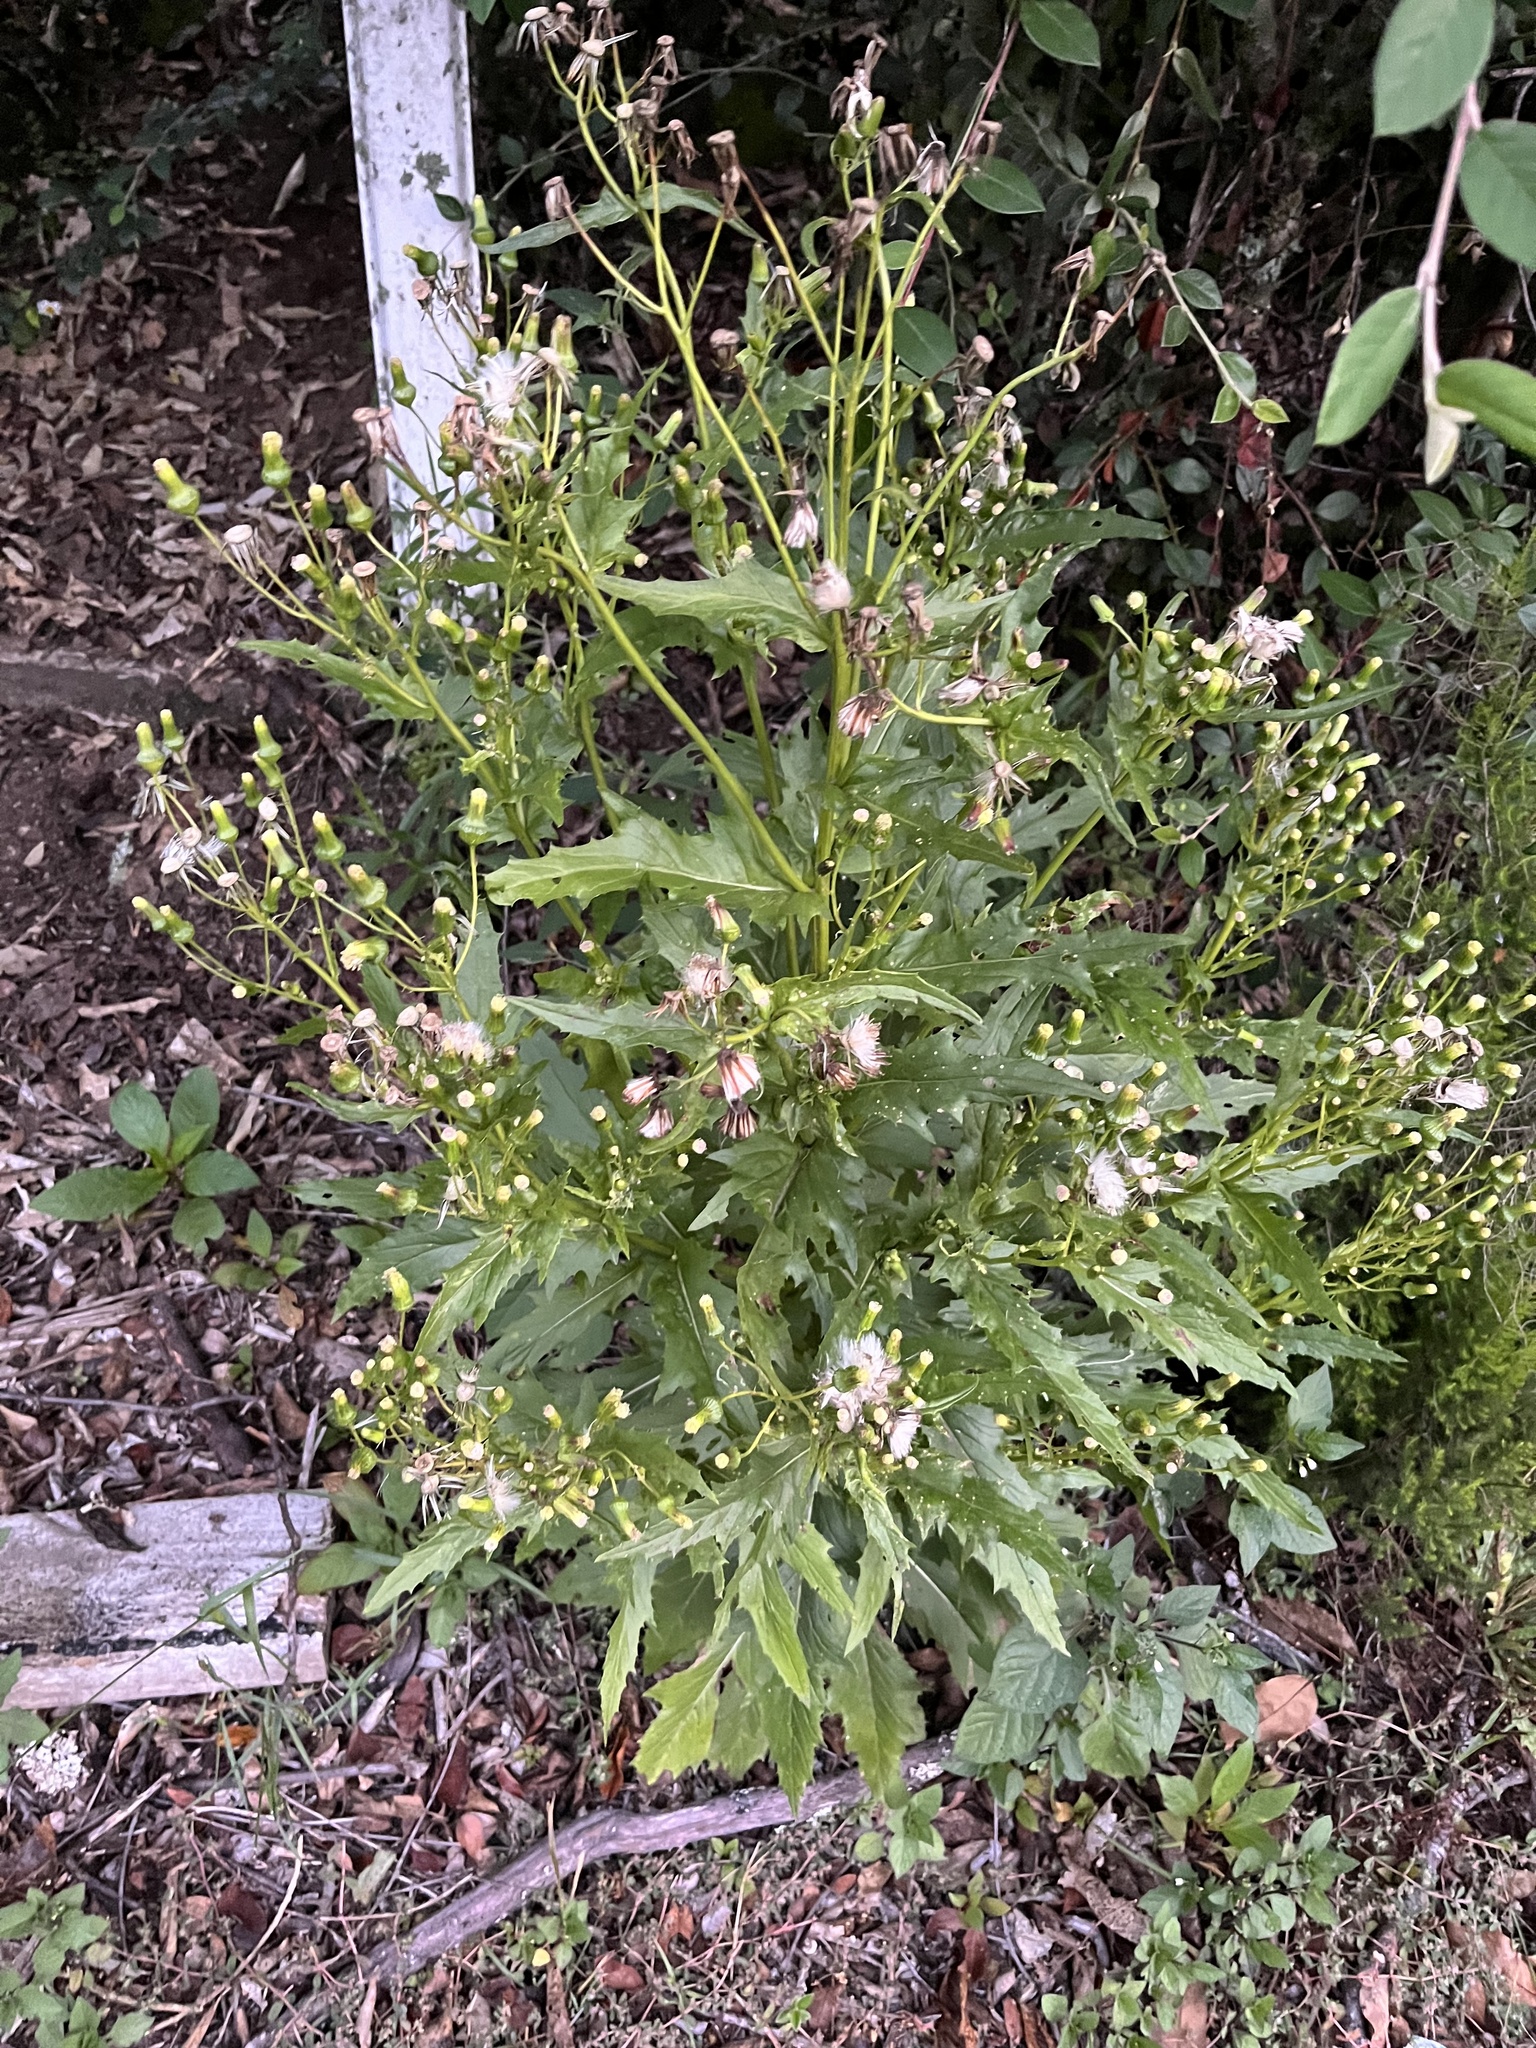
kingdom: Plantae
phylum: Tracheophyta
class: Magnoliopsida
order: Asterales
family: Asteraceae
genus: Erechtites
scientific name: Erechtites hieraciifolius
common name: American burnweed
